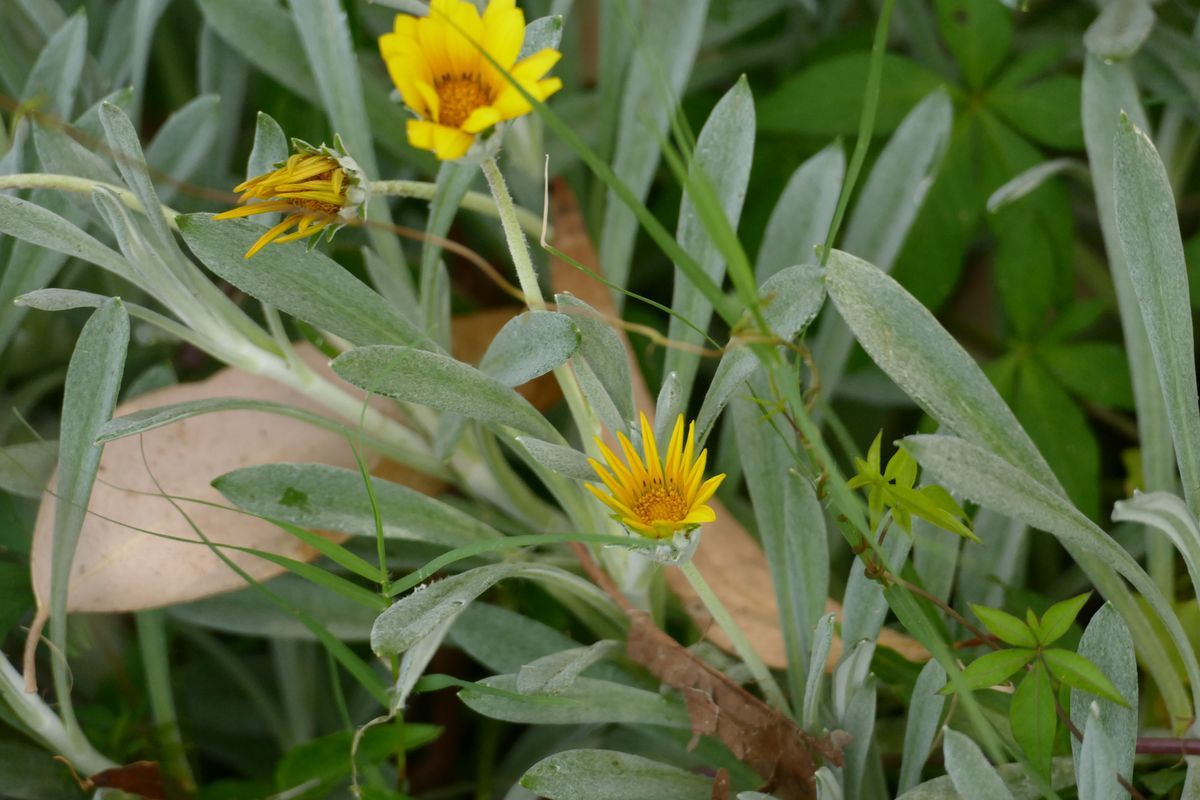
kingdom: Plantae
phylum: Tracheophyta
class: Magnoliopsida
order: Asterales
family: Asteraceae
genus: Gazania
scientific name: Gazania rigens
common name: Treasureflower
